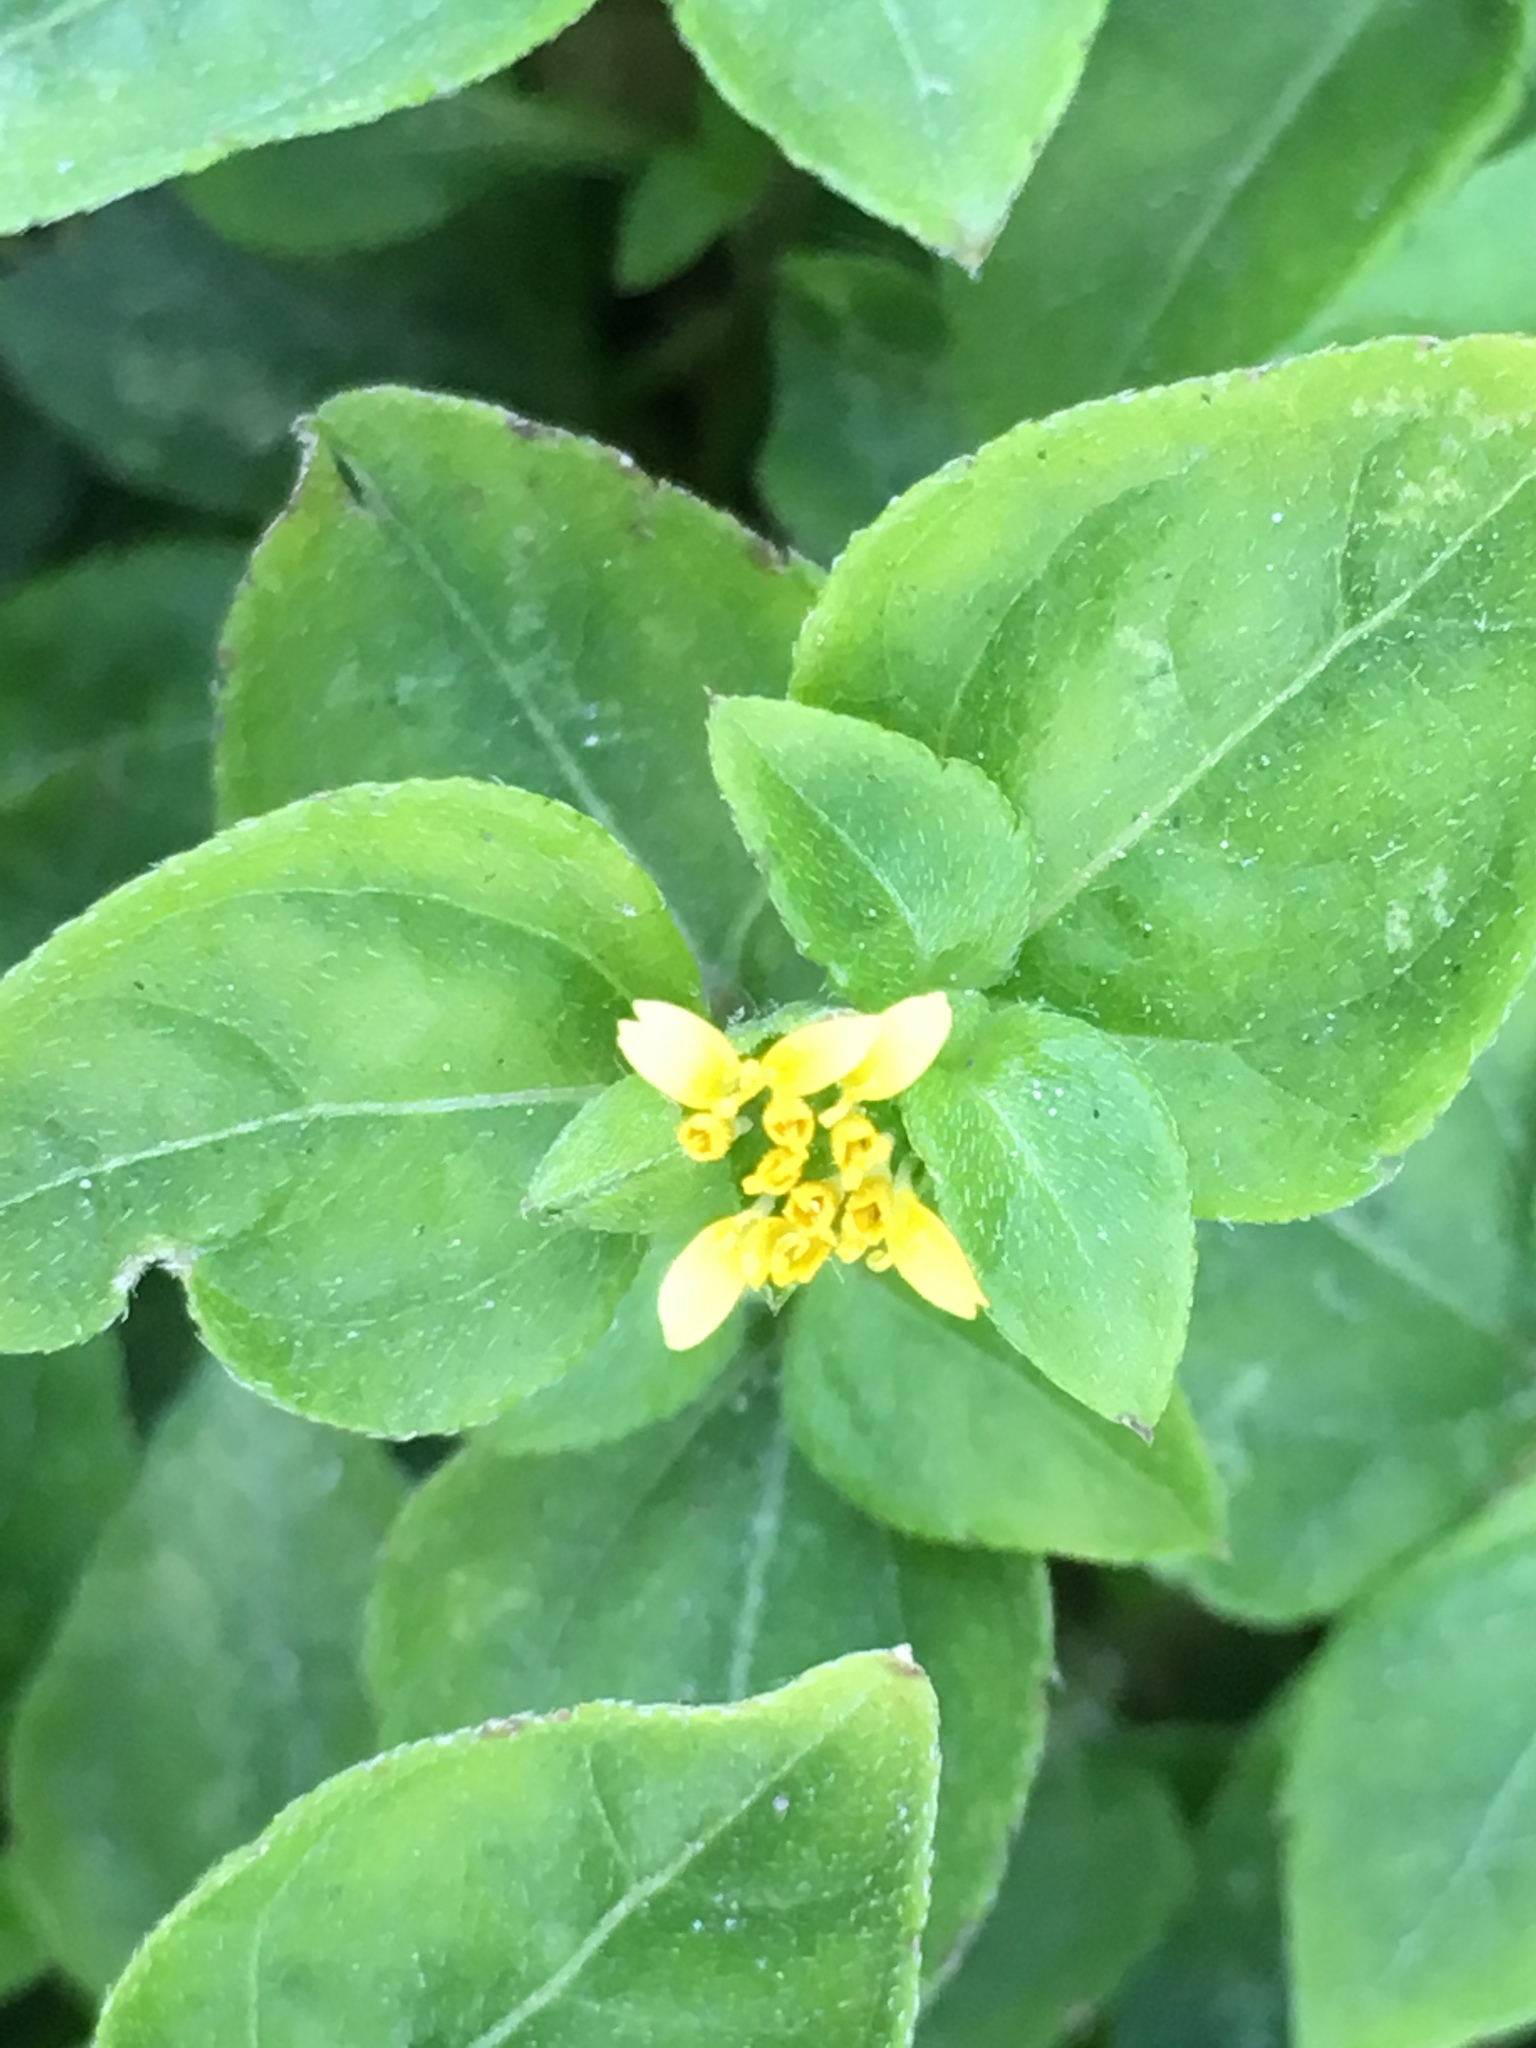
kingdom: Plantae
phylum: Tracheophyta
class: Magnoliopsida
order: Asterales
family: Asteraceae
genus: Calyptocarpus
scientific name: Calyptocarpus vialis
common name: Straggler daisy
